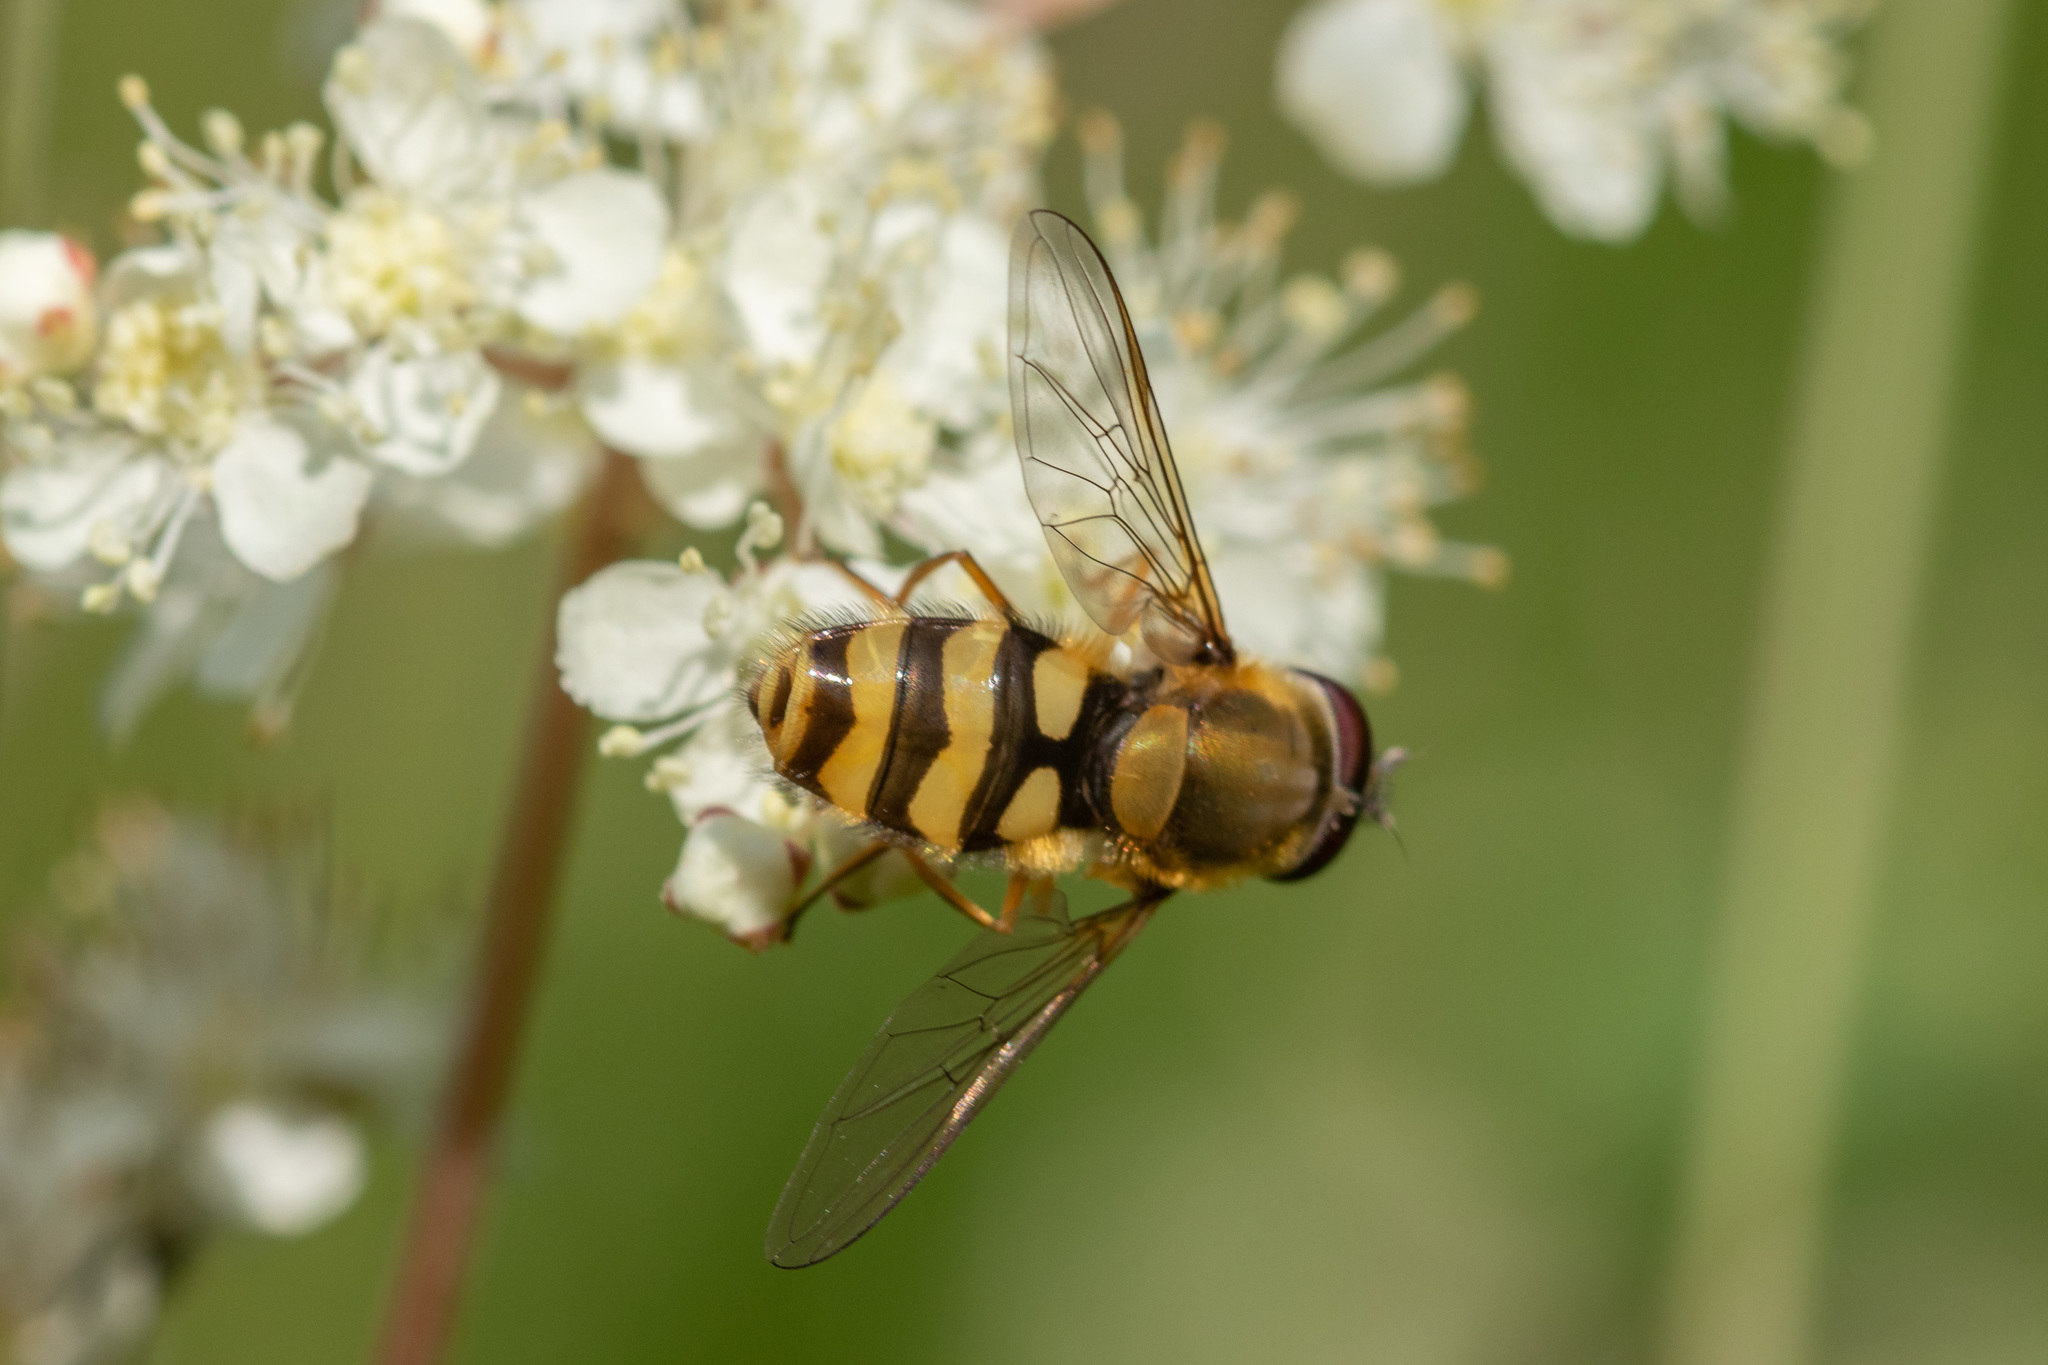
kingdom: Animalia
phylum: Arthropoda
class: Insecta
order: Diptera
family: Syrphidae
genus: Syrphus
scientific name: Syrphus ribesii
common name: Common flower fly
